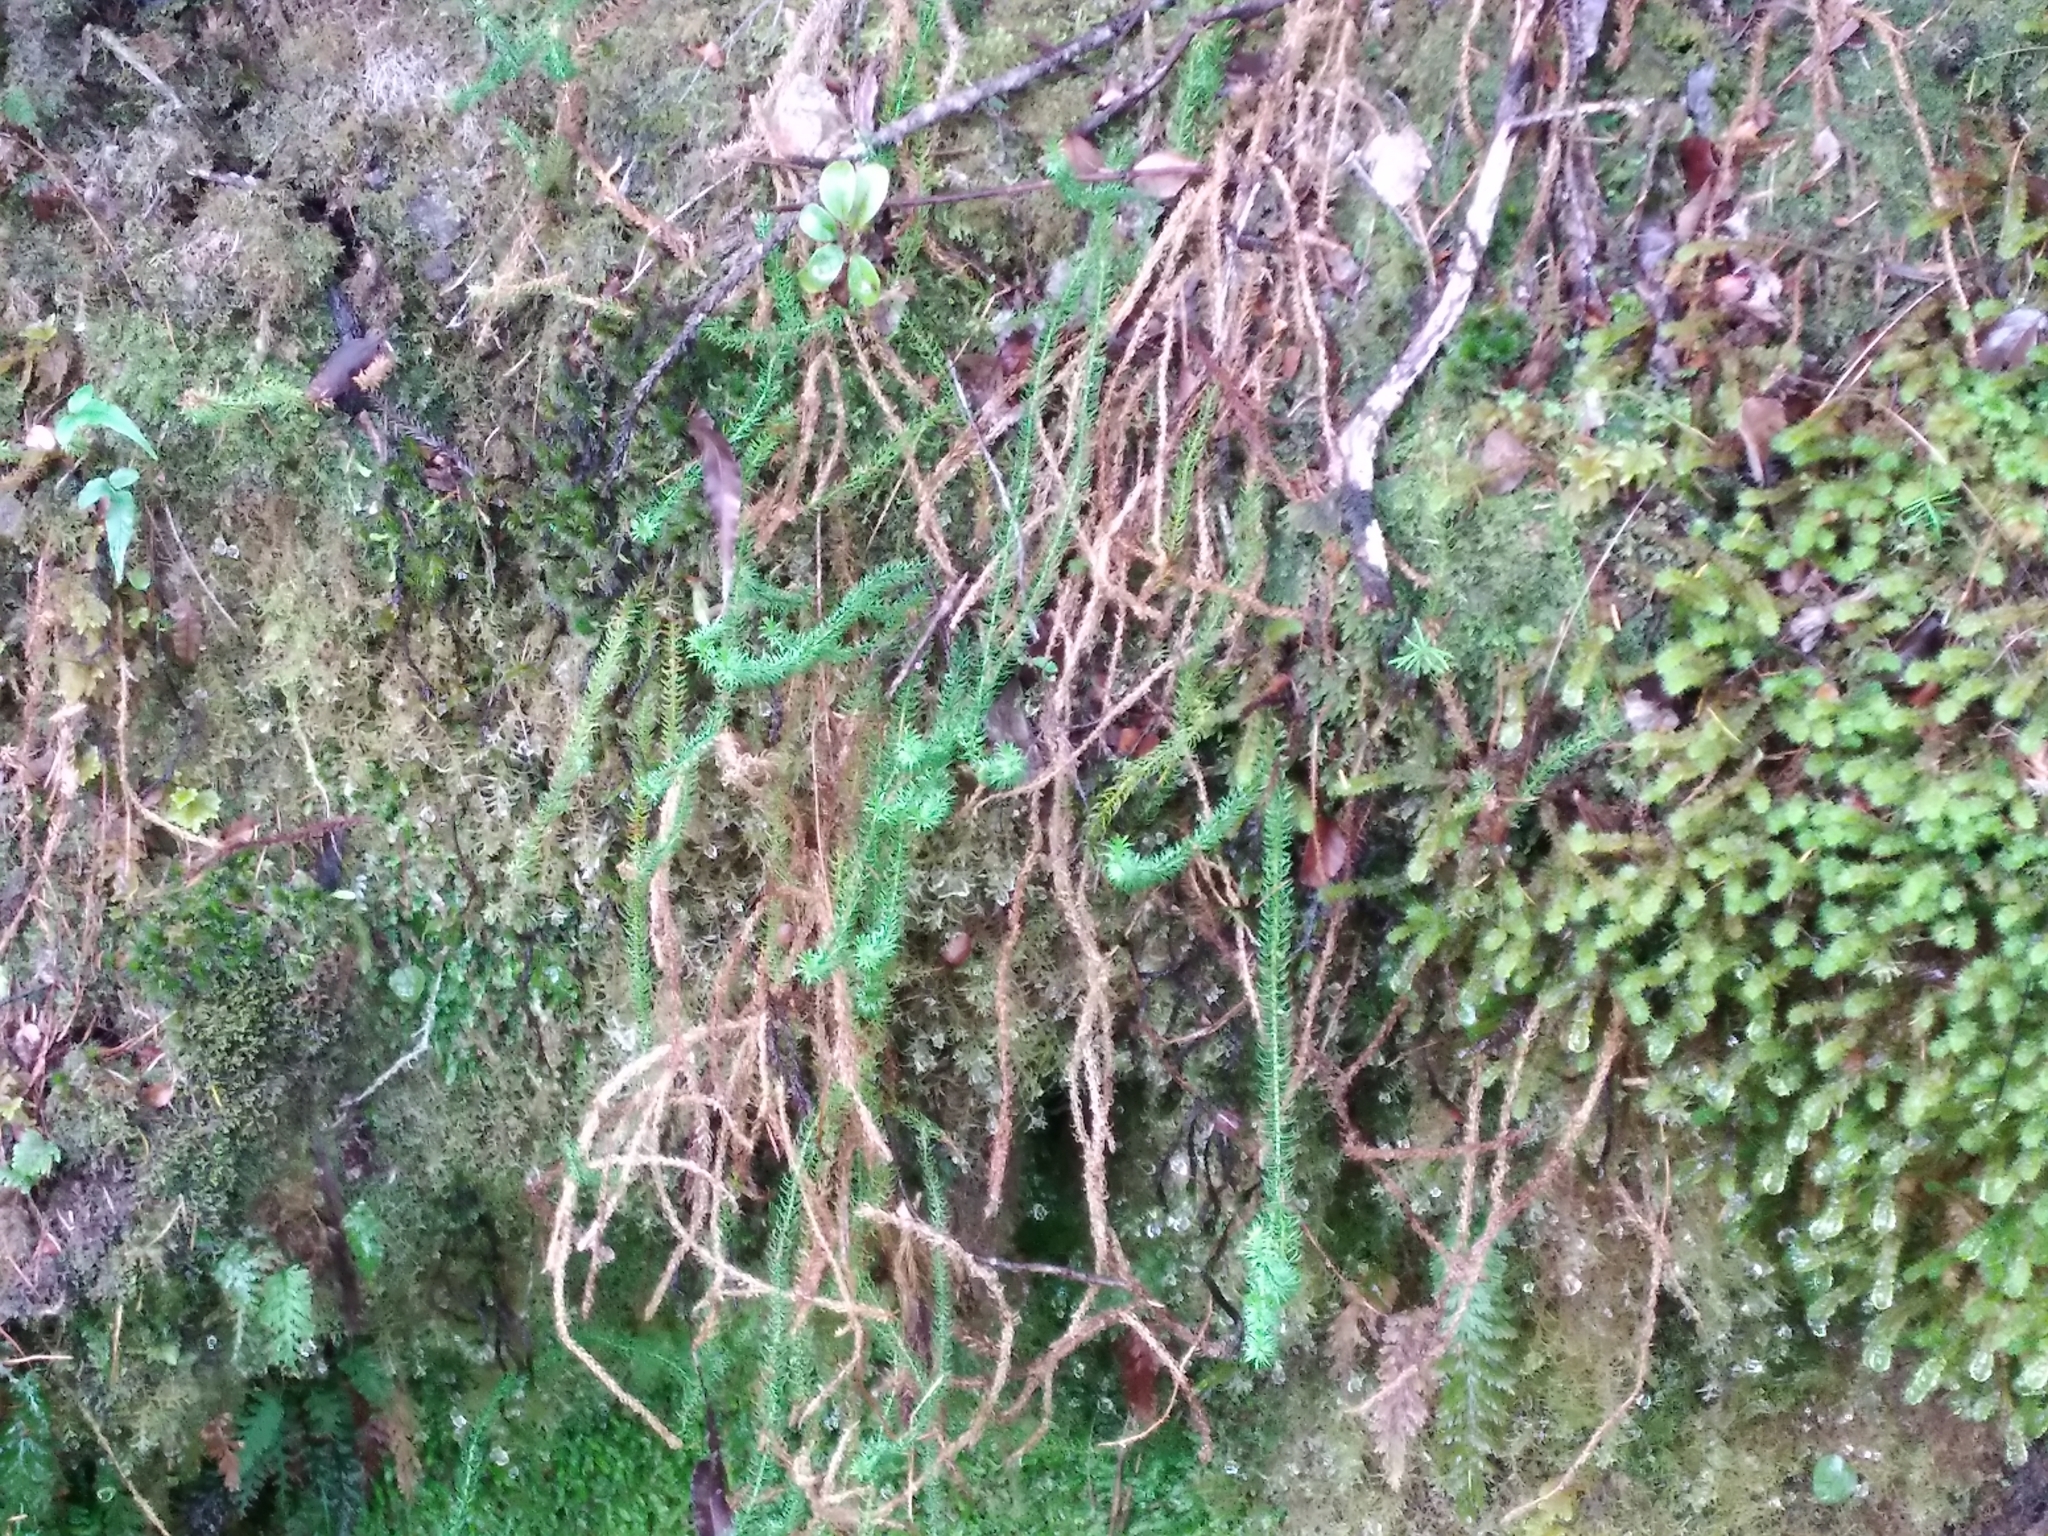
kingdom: Plantae
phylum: Tracheophyta
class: Lycopodiopsida
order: Lycopodiales
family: Lycopodiaceae
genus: Lateristachys
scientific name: Lateristachys lateralis
